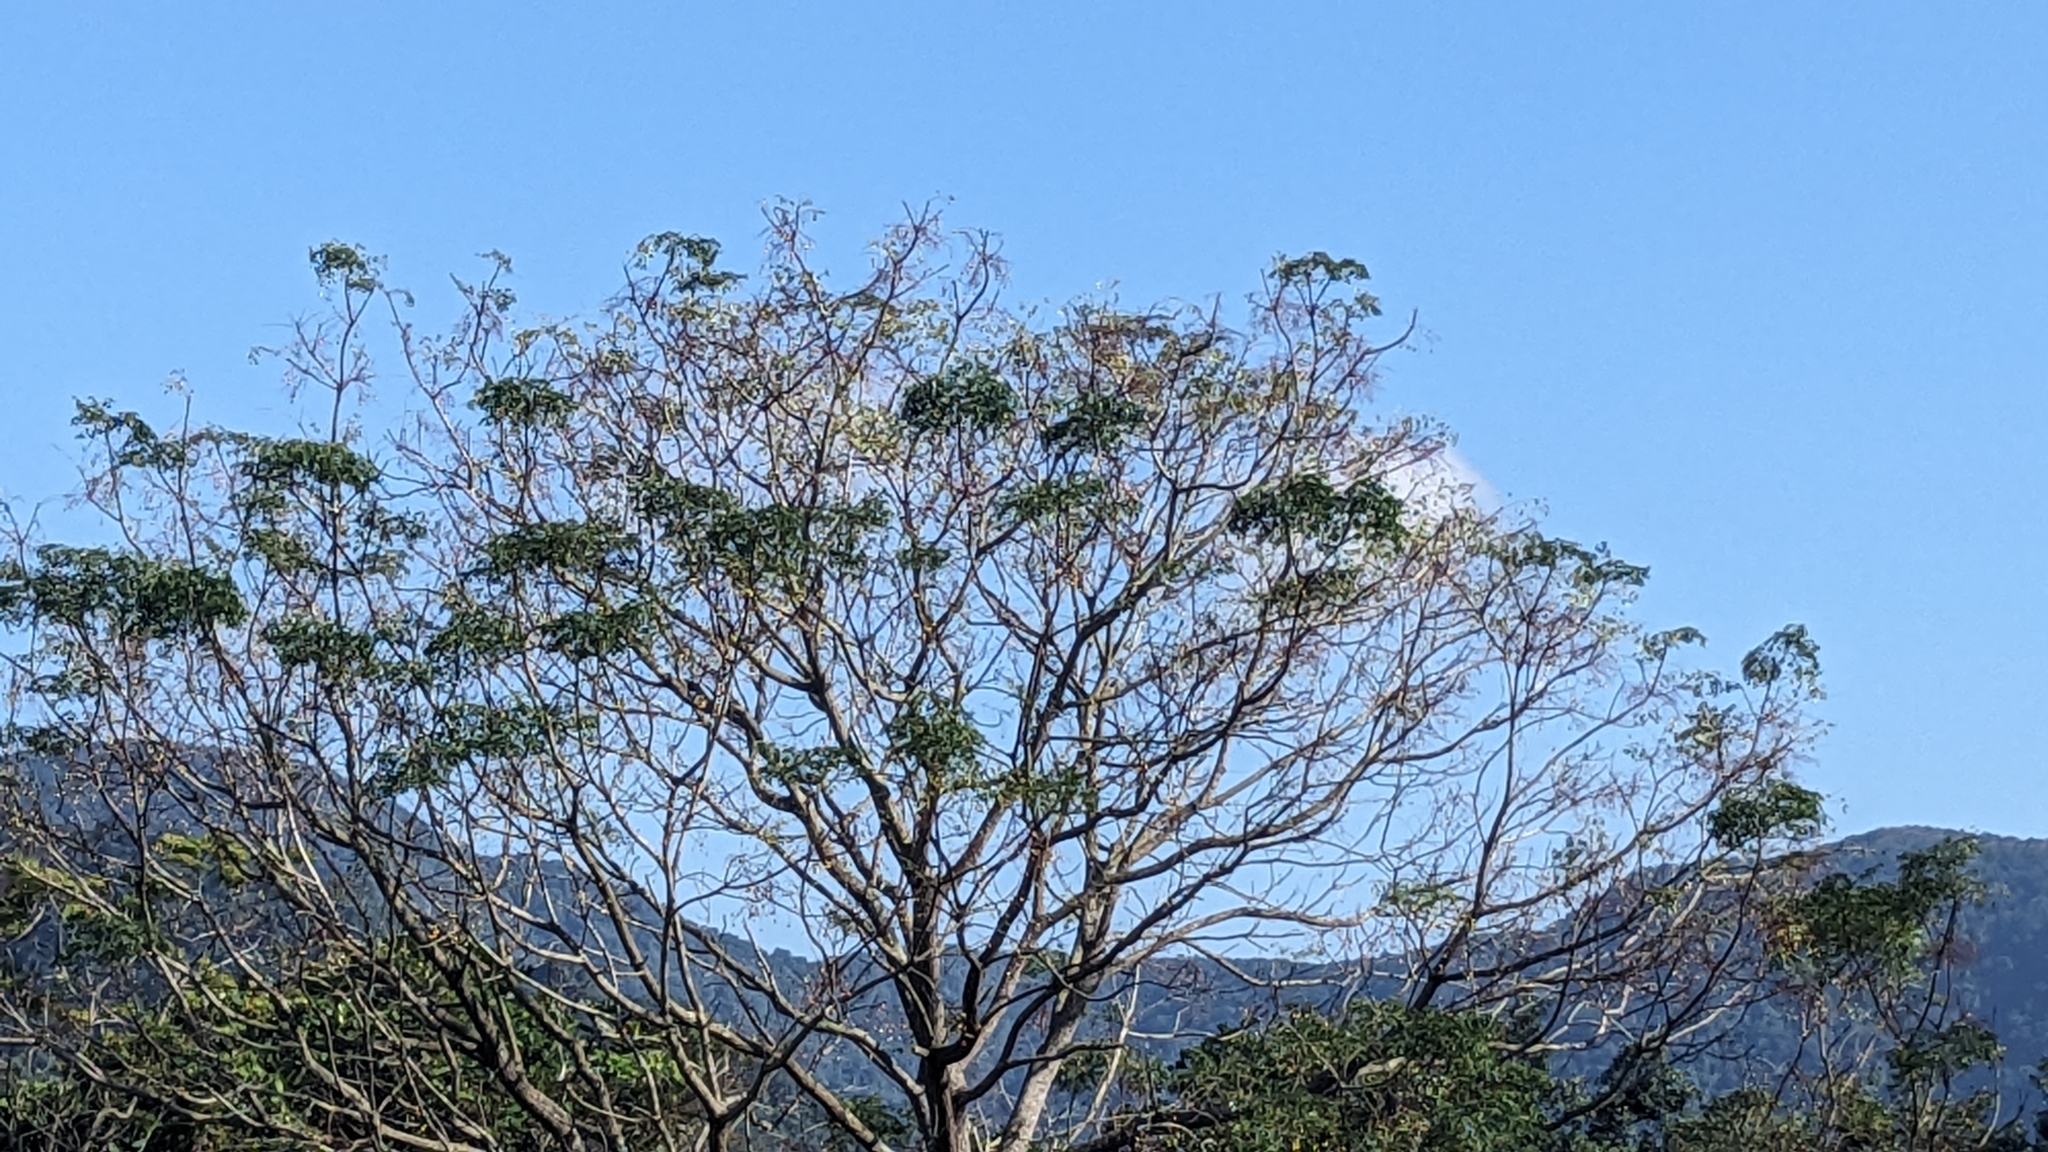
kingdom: Plantae
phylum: Tracheophyta
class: Magnoliopsida
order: Sapindales
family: Meliaceae
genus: Melia
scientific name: Melia azedarach
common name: Chinaberrytree
